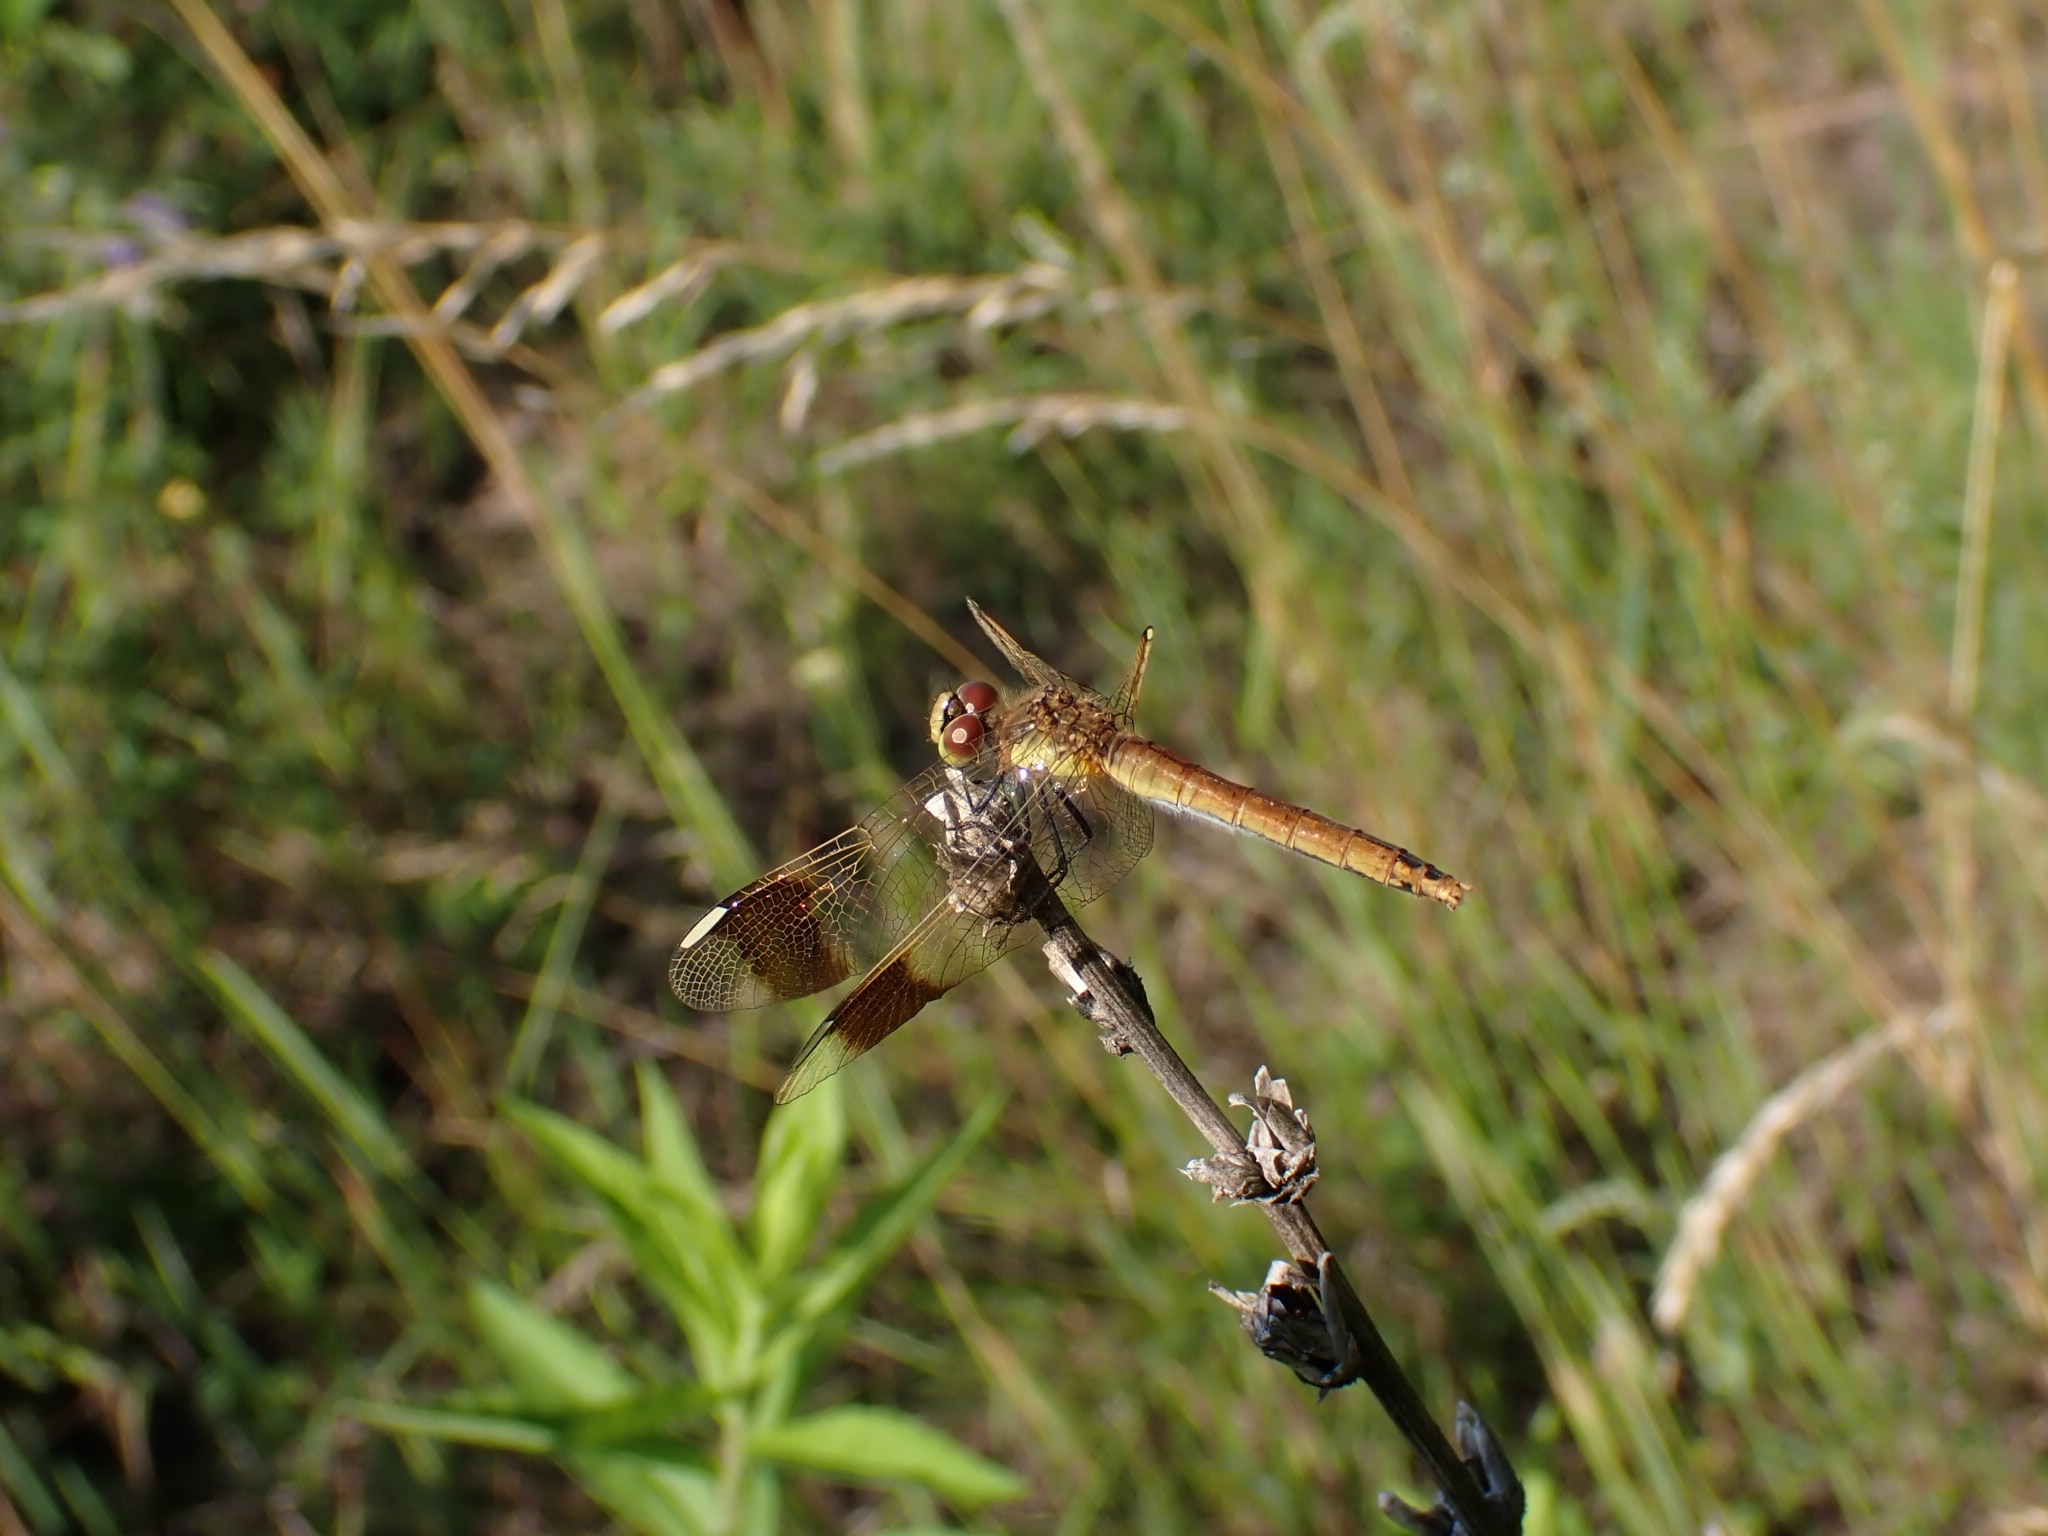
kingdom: Animalia
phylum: Arthropoda
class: Insecta
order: Odonata
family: Libellulidae
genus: Sympetrum
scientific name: Sympetrum pedemontanum
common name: Banded darter
